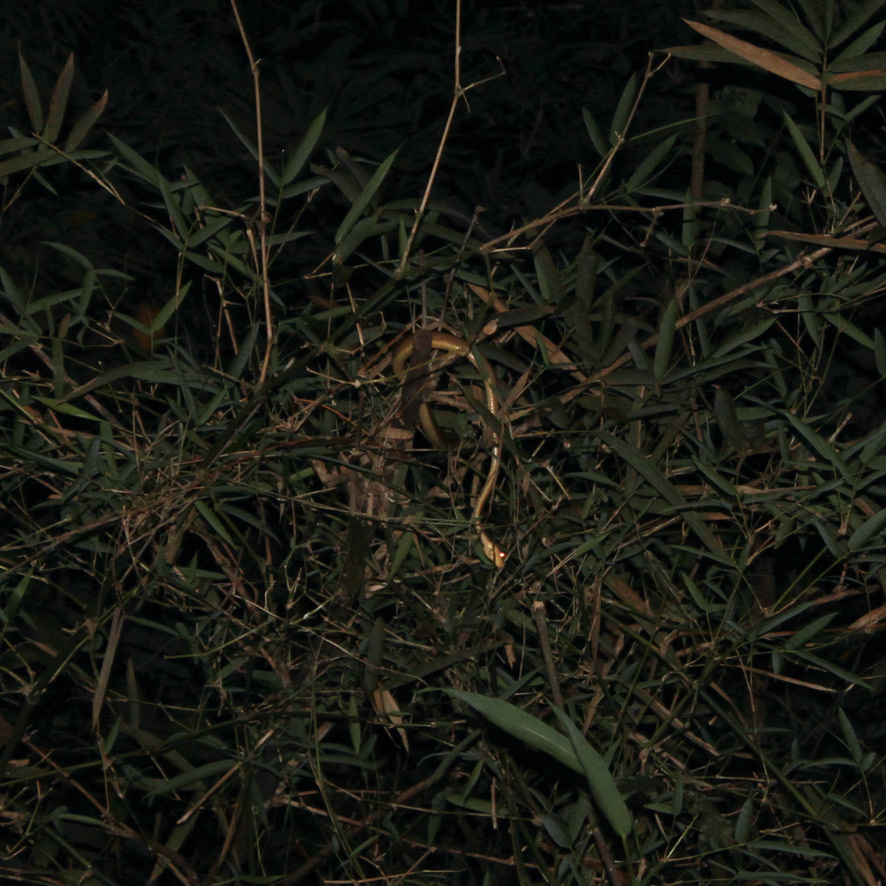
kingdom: Animalia
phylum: Chordata
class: Squamata
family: Boidae
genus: Corallus
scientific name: Corallus ruschenbergerii
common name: Dormilona
